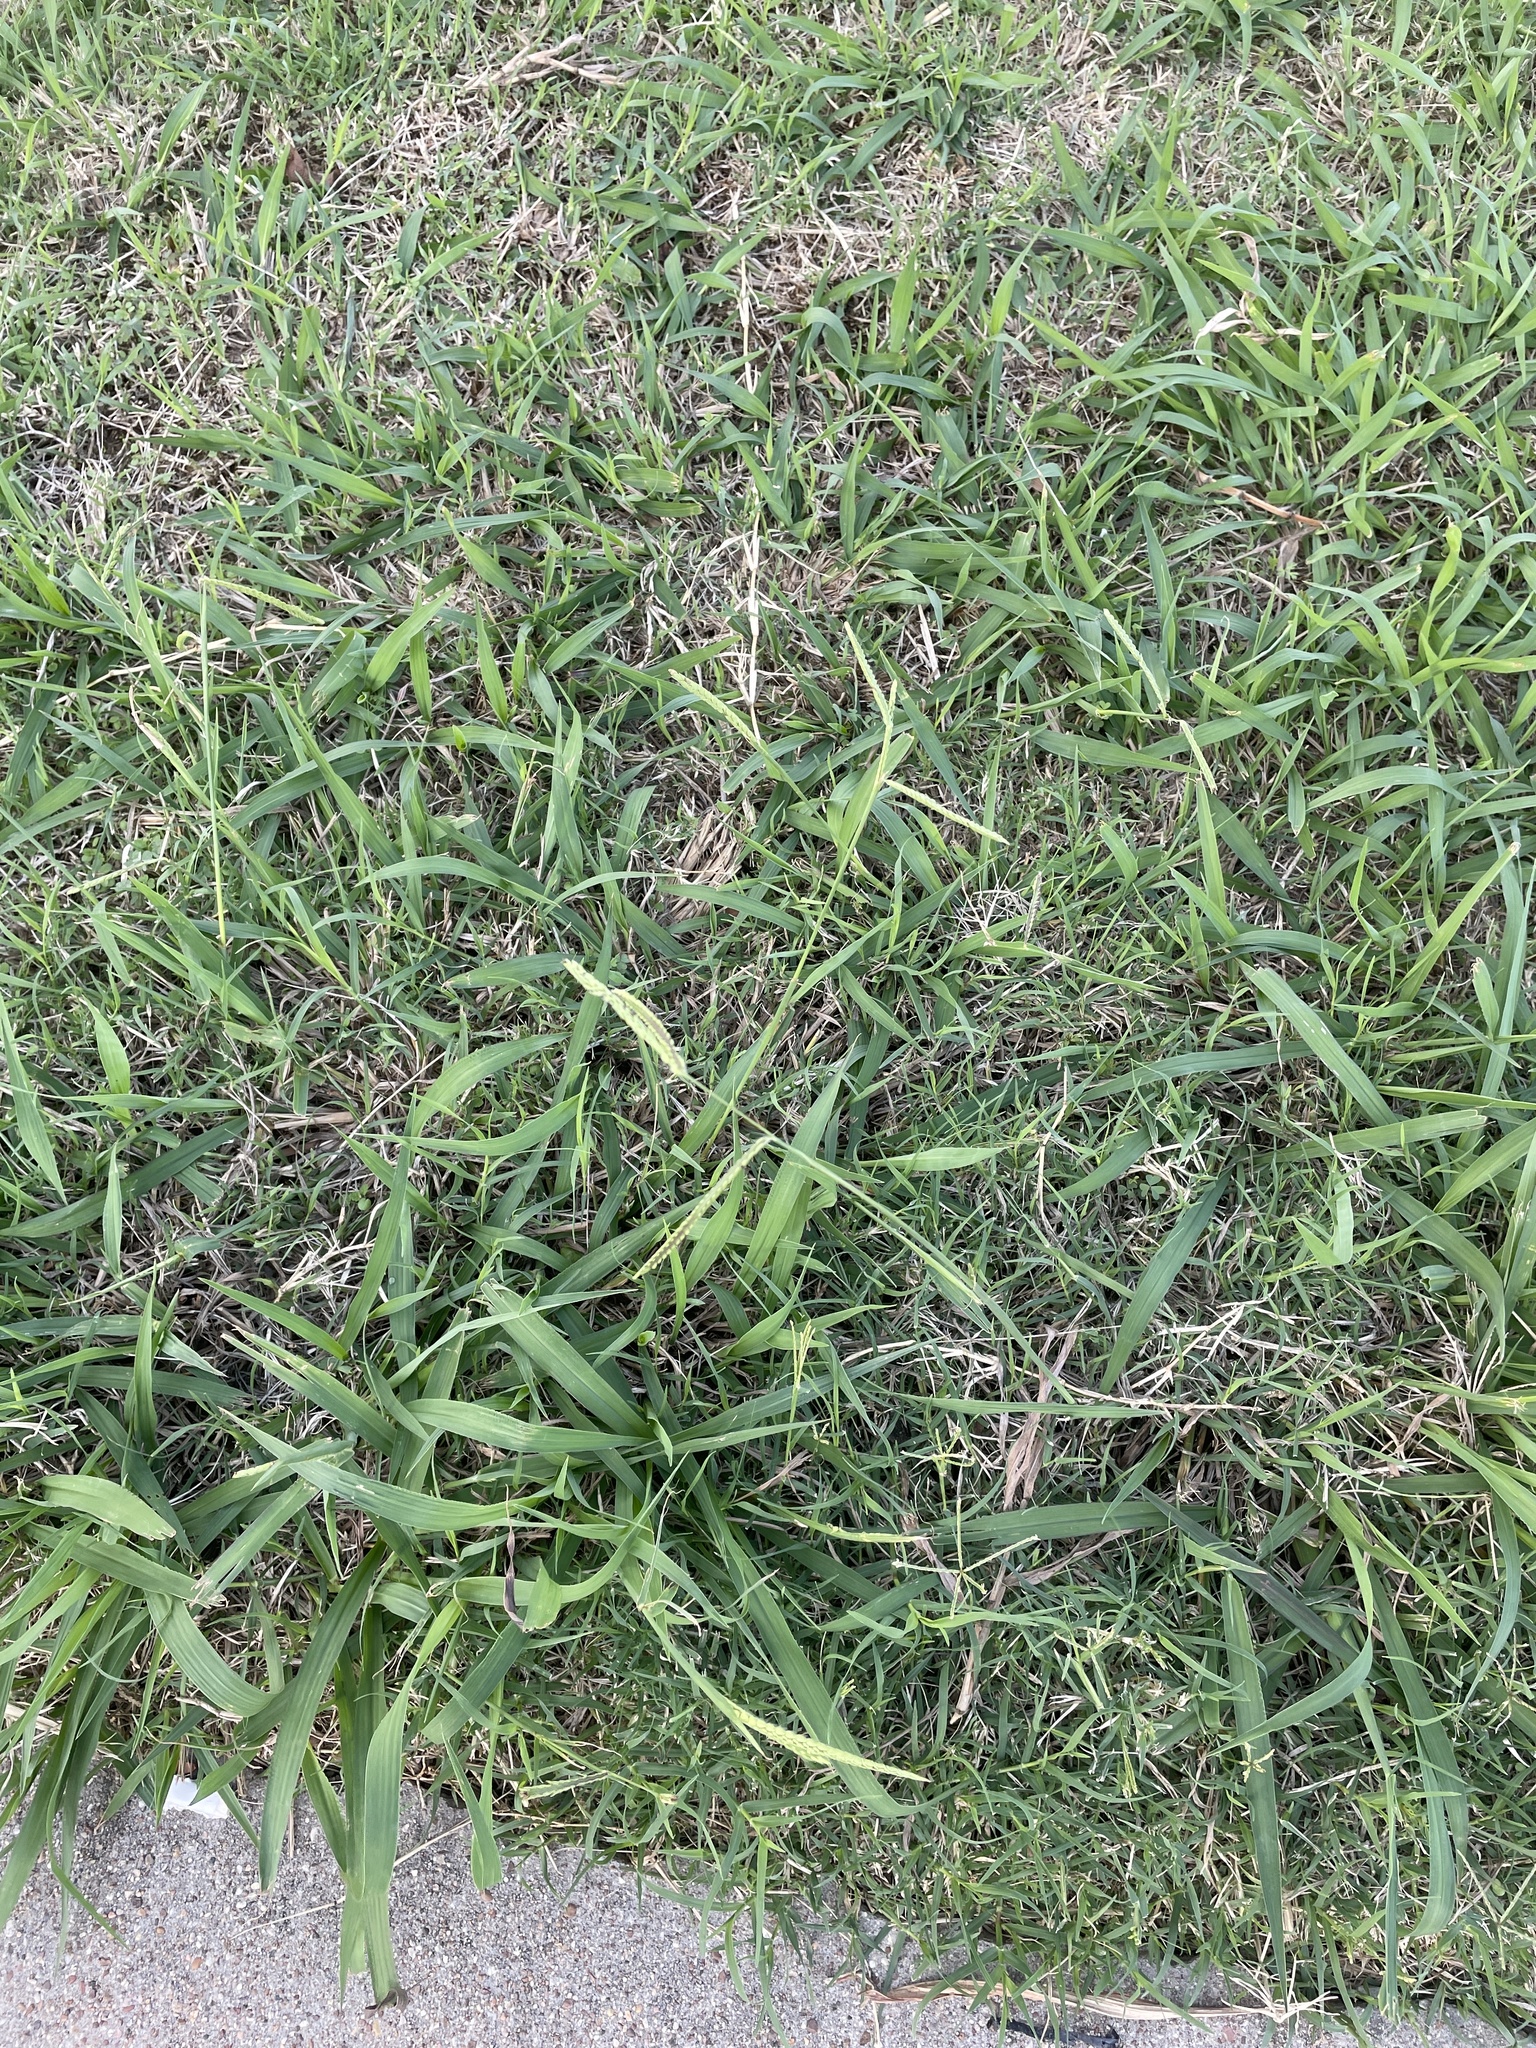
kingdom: Plantae
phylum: Tracheophyta
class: Liliopsida
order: Poales
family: Poaceae
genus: Paspalum
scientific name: Paspalum dilatatum
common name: Dallisgrass
